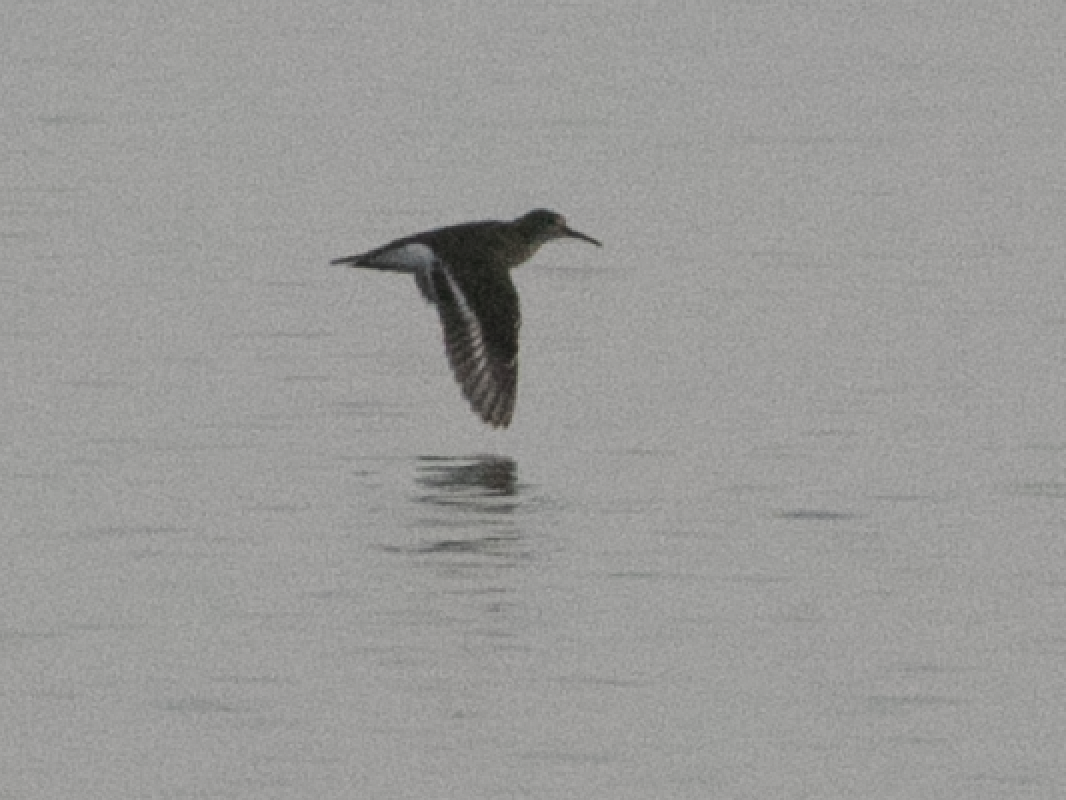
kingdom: Animalia
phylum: Chordata
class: Aves
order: Charadriiformes
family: Scolopacidae
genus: Actitis
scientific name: Actitis hypoleucos
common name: Common sandpiper
